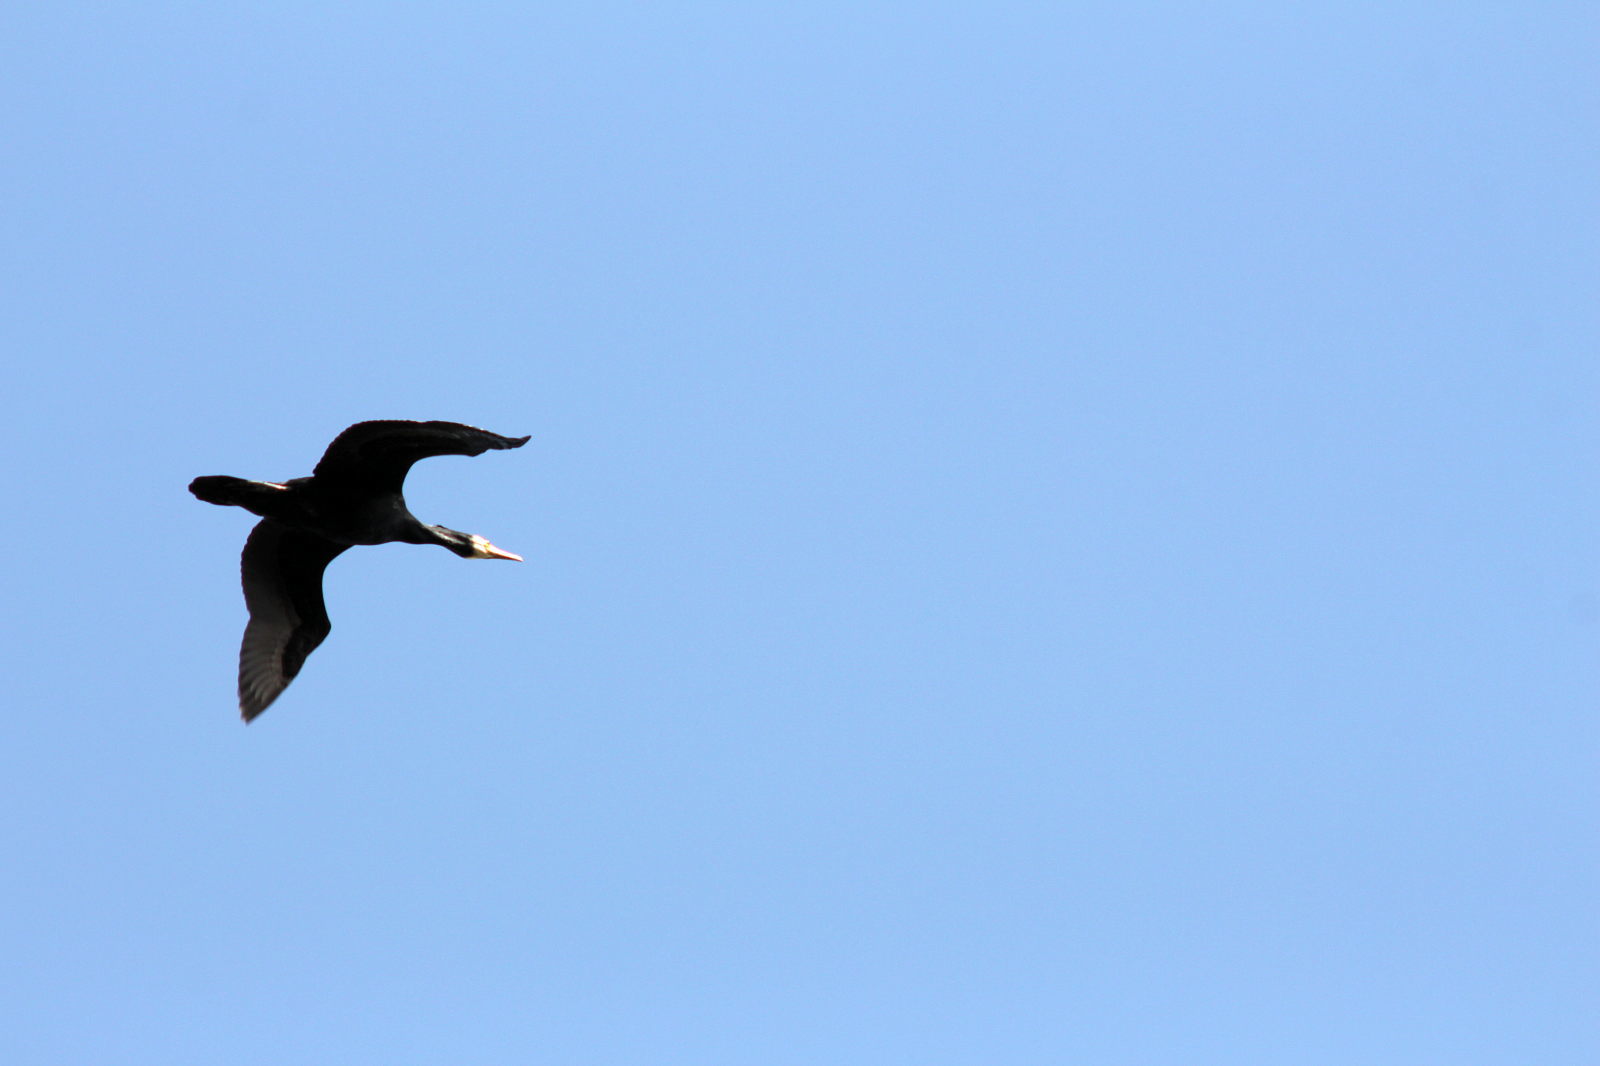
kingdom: Animalia
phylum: Chordata
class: Aves
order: Suliformes
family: Phalacrocoracidae
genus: Phalacrocorax
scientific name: Phalacrocorax carbo
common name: Great cormorant
